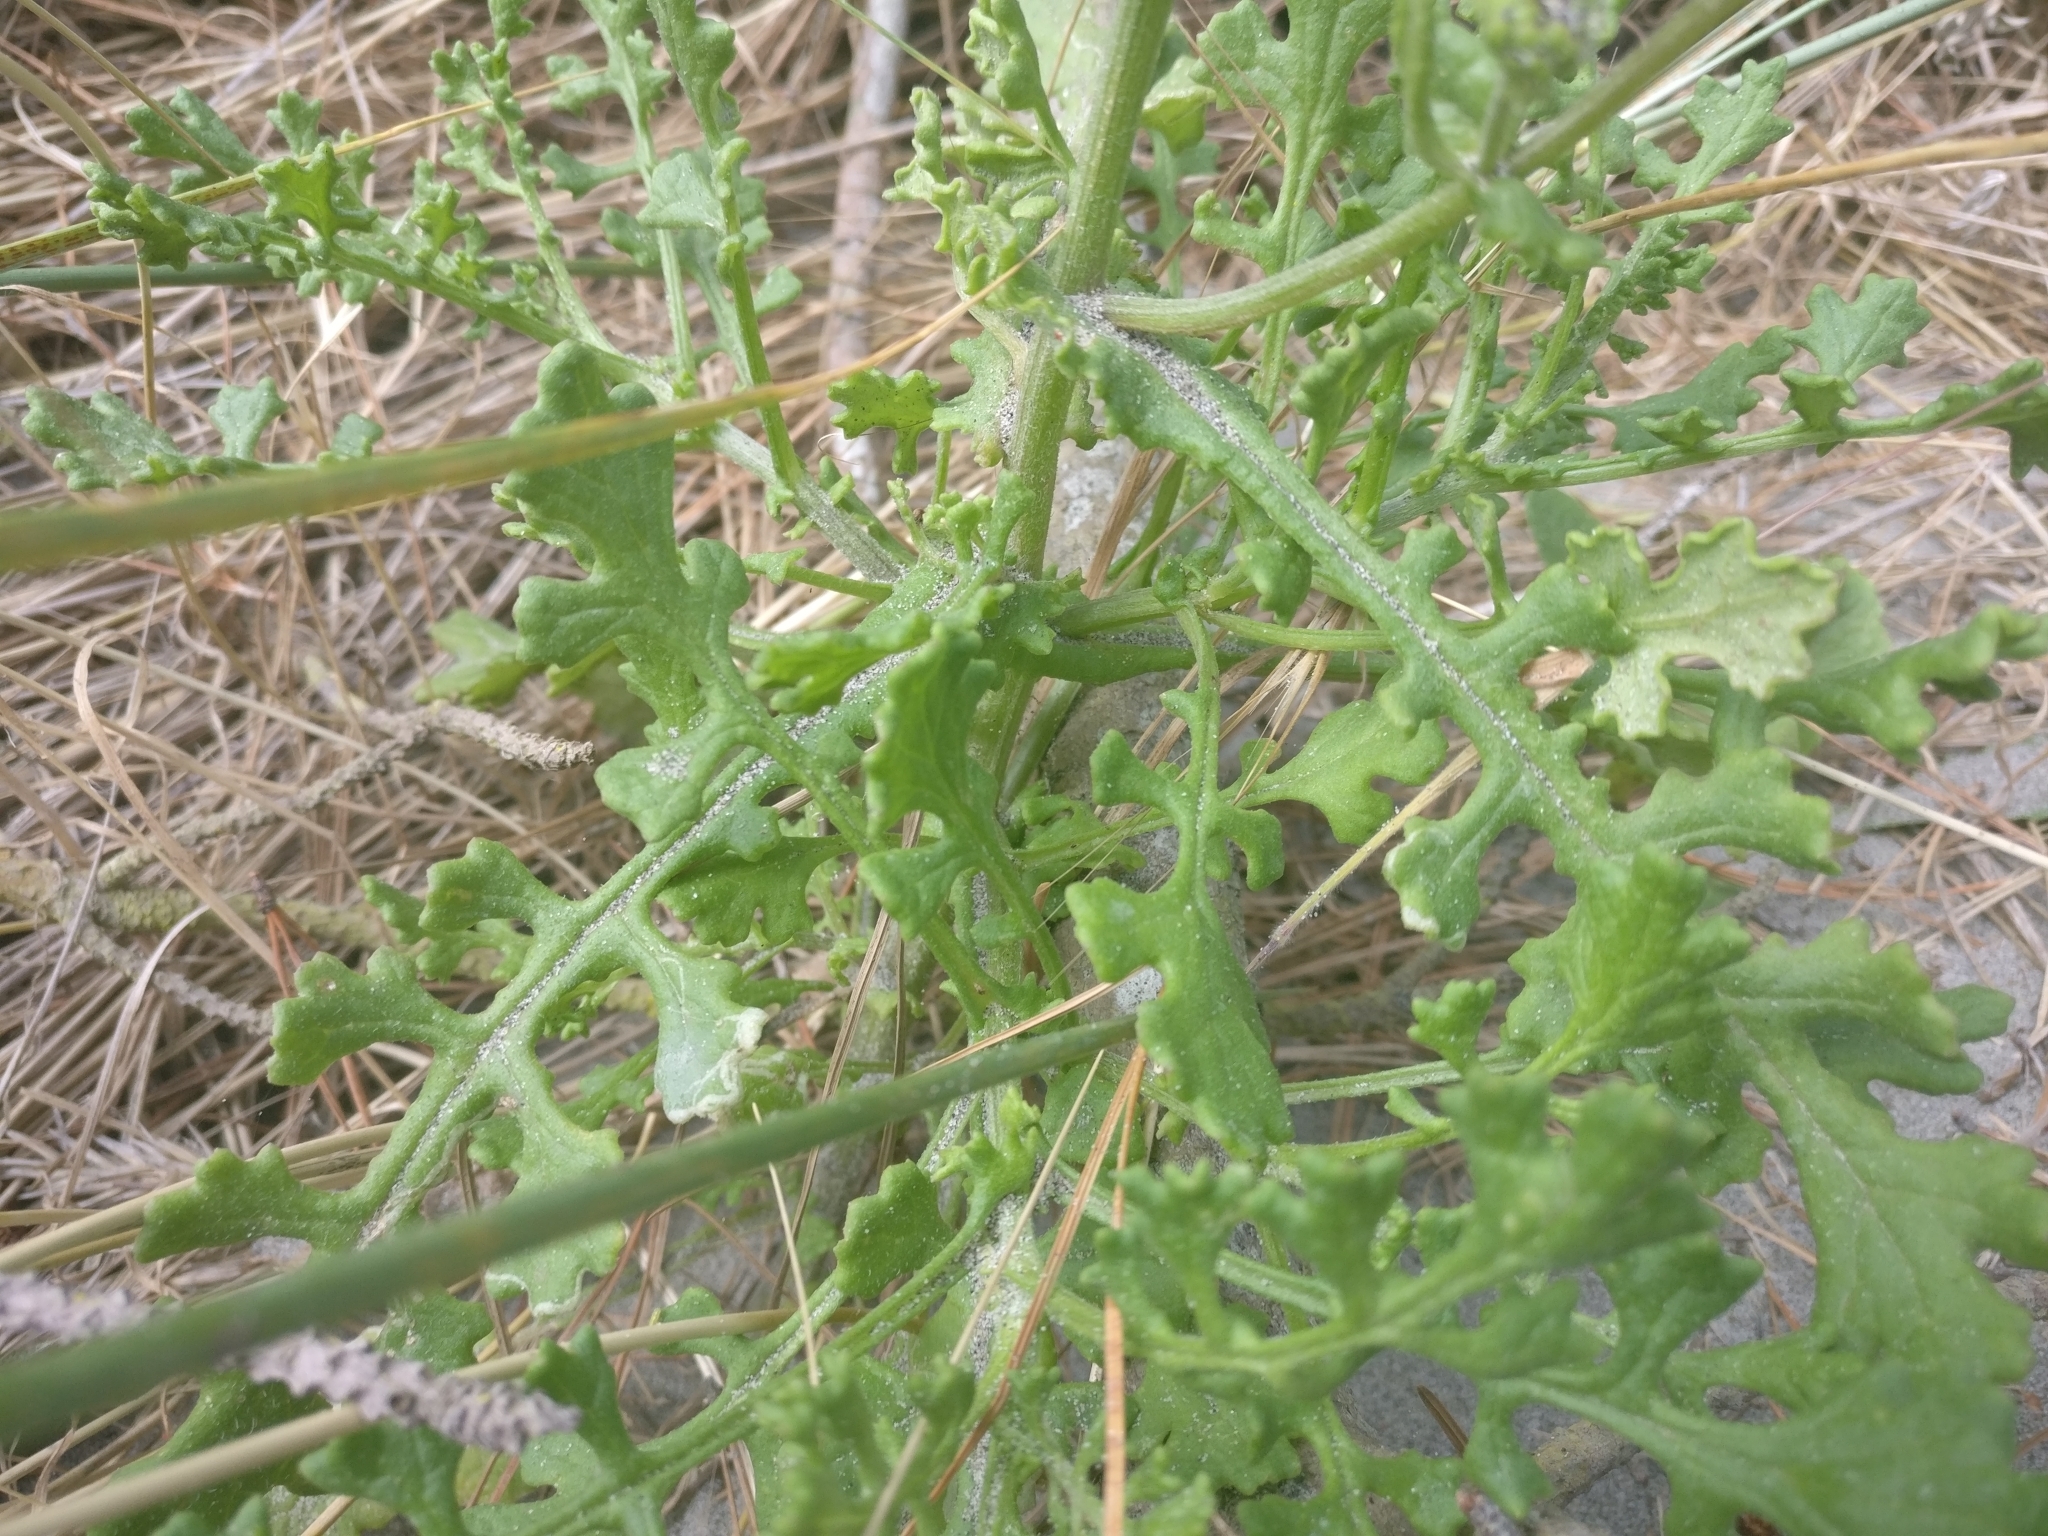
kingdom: Plantae
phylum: Tracheophyta
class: Magnoliopsida
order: Asterales
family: Asteraceae
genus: Senecio
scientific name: Senecio elegans
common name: Purple groundsel
